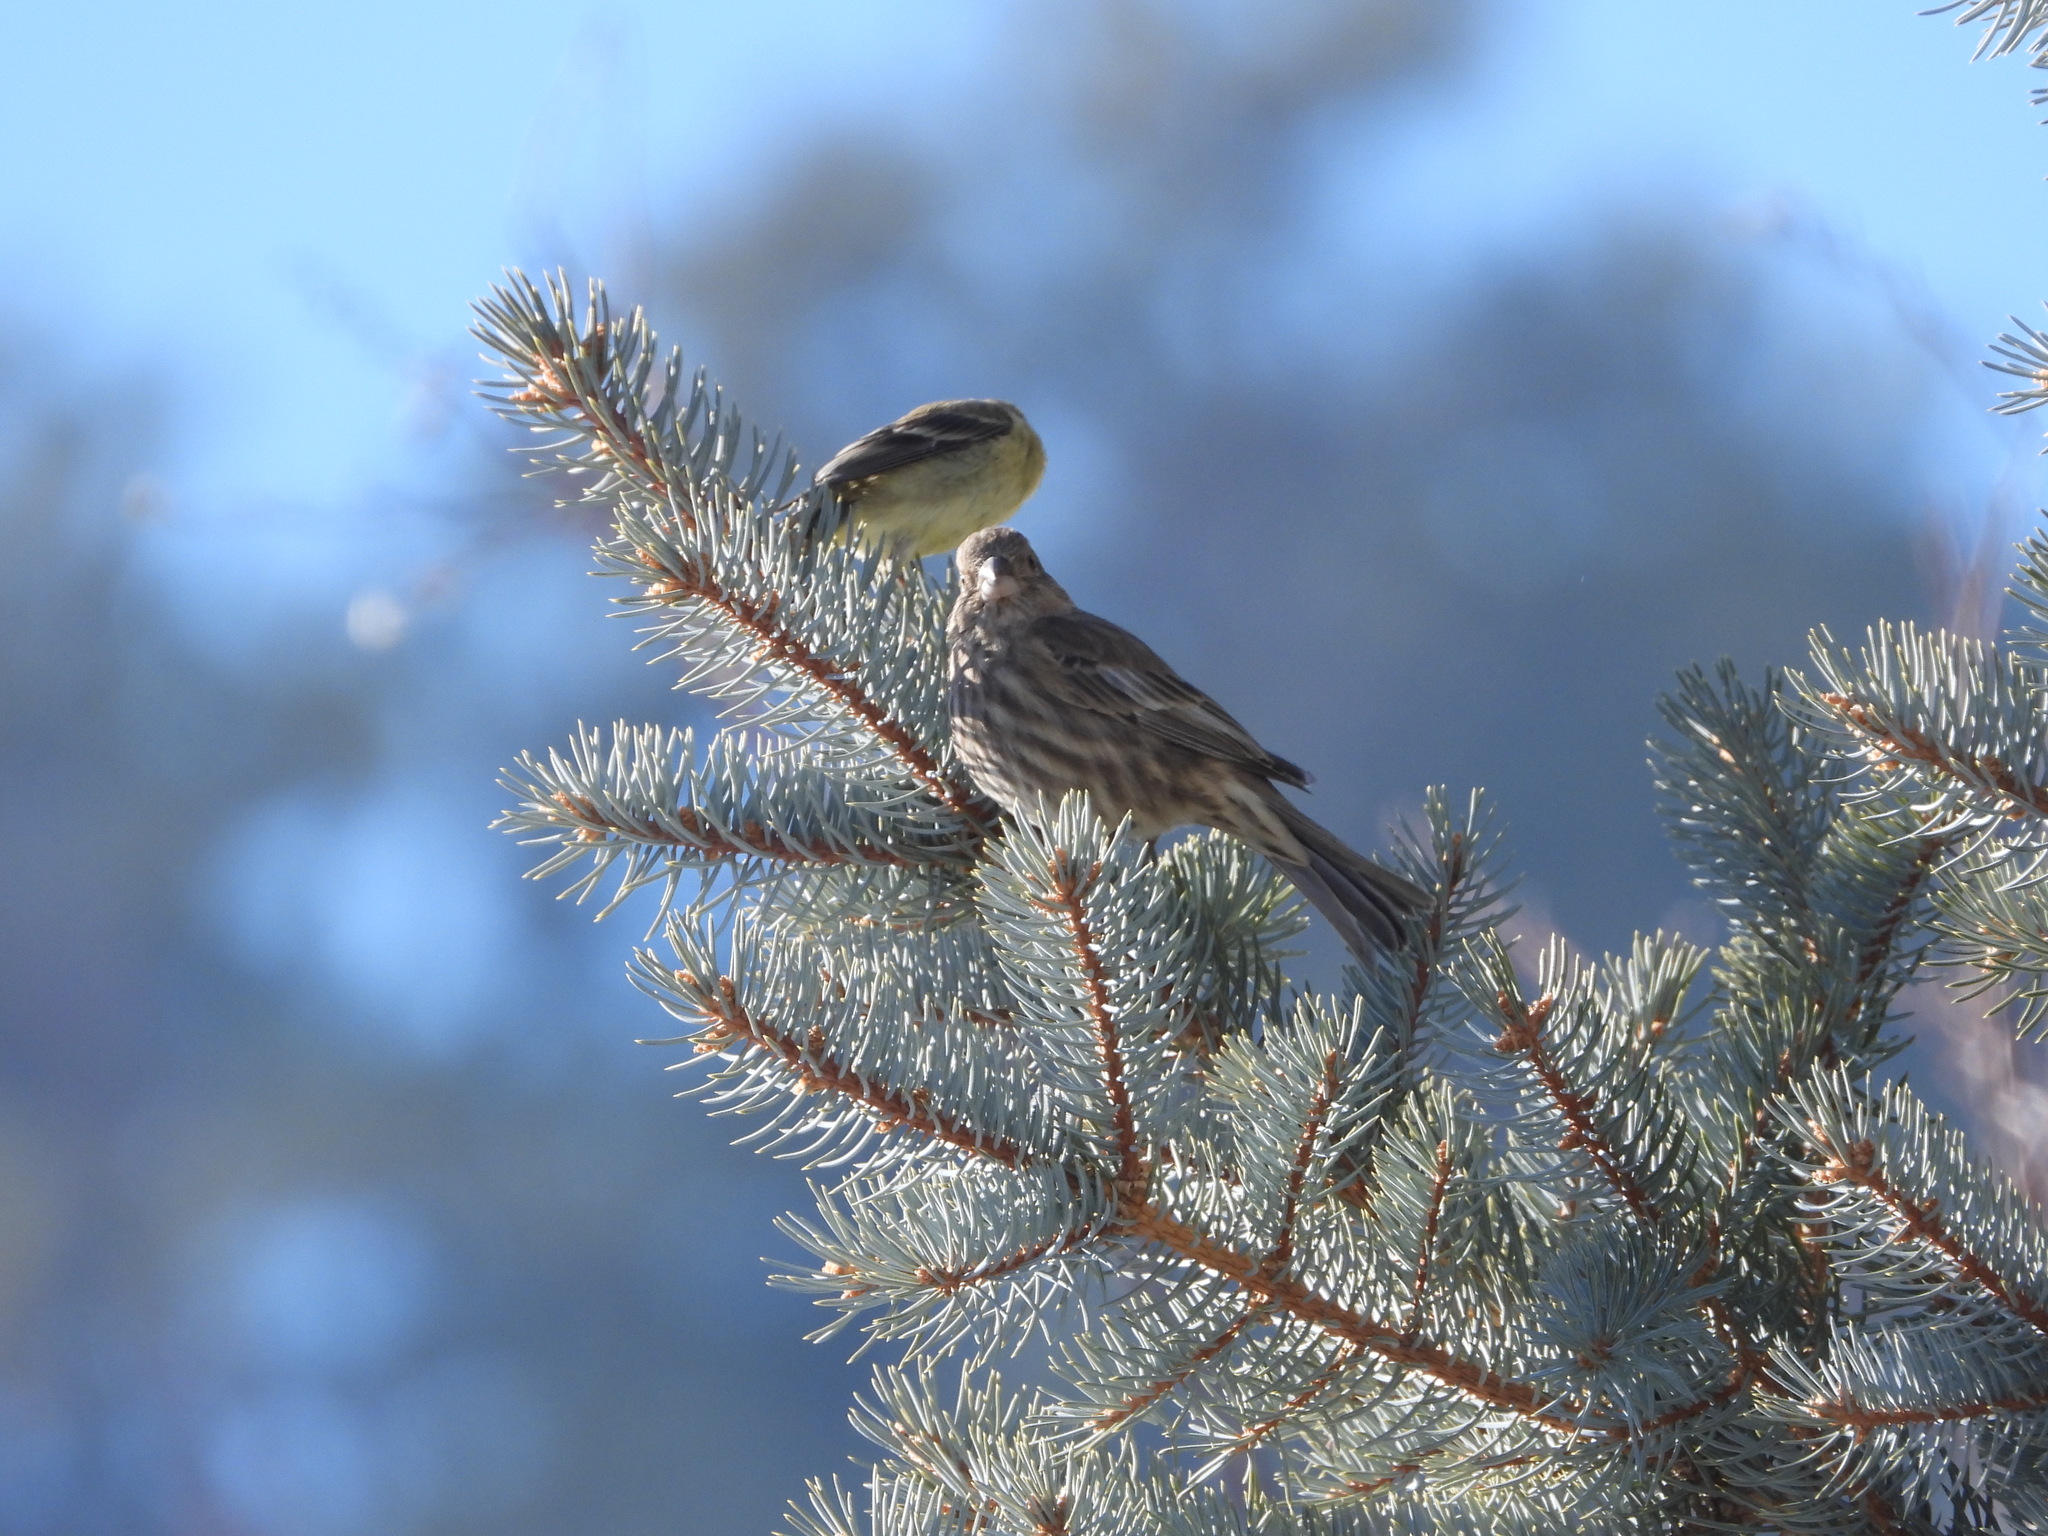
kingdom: Animalia
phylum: Chordata
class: Aves
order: Passeriformes
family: Fringillidae
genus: Spinus
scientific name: Spinus psaltria
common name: Lesser goldfinch
